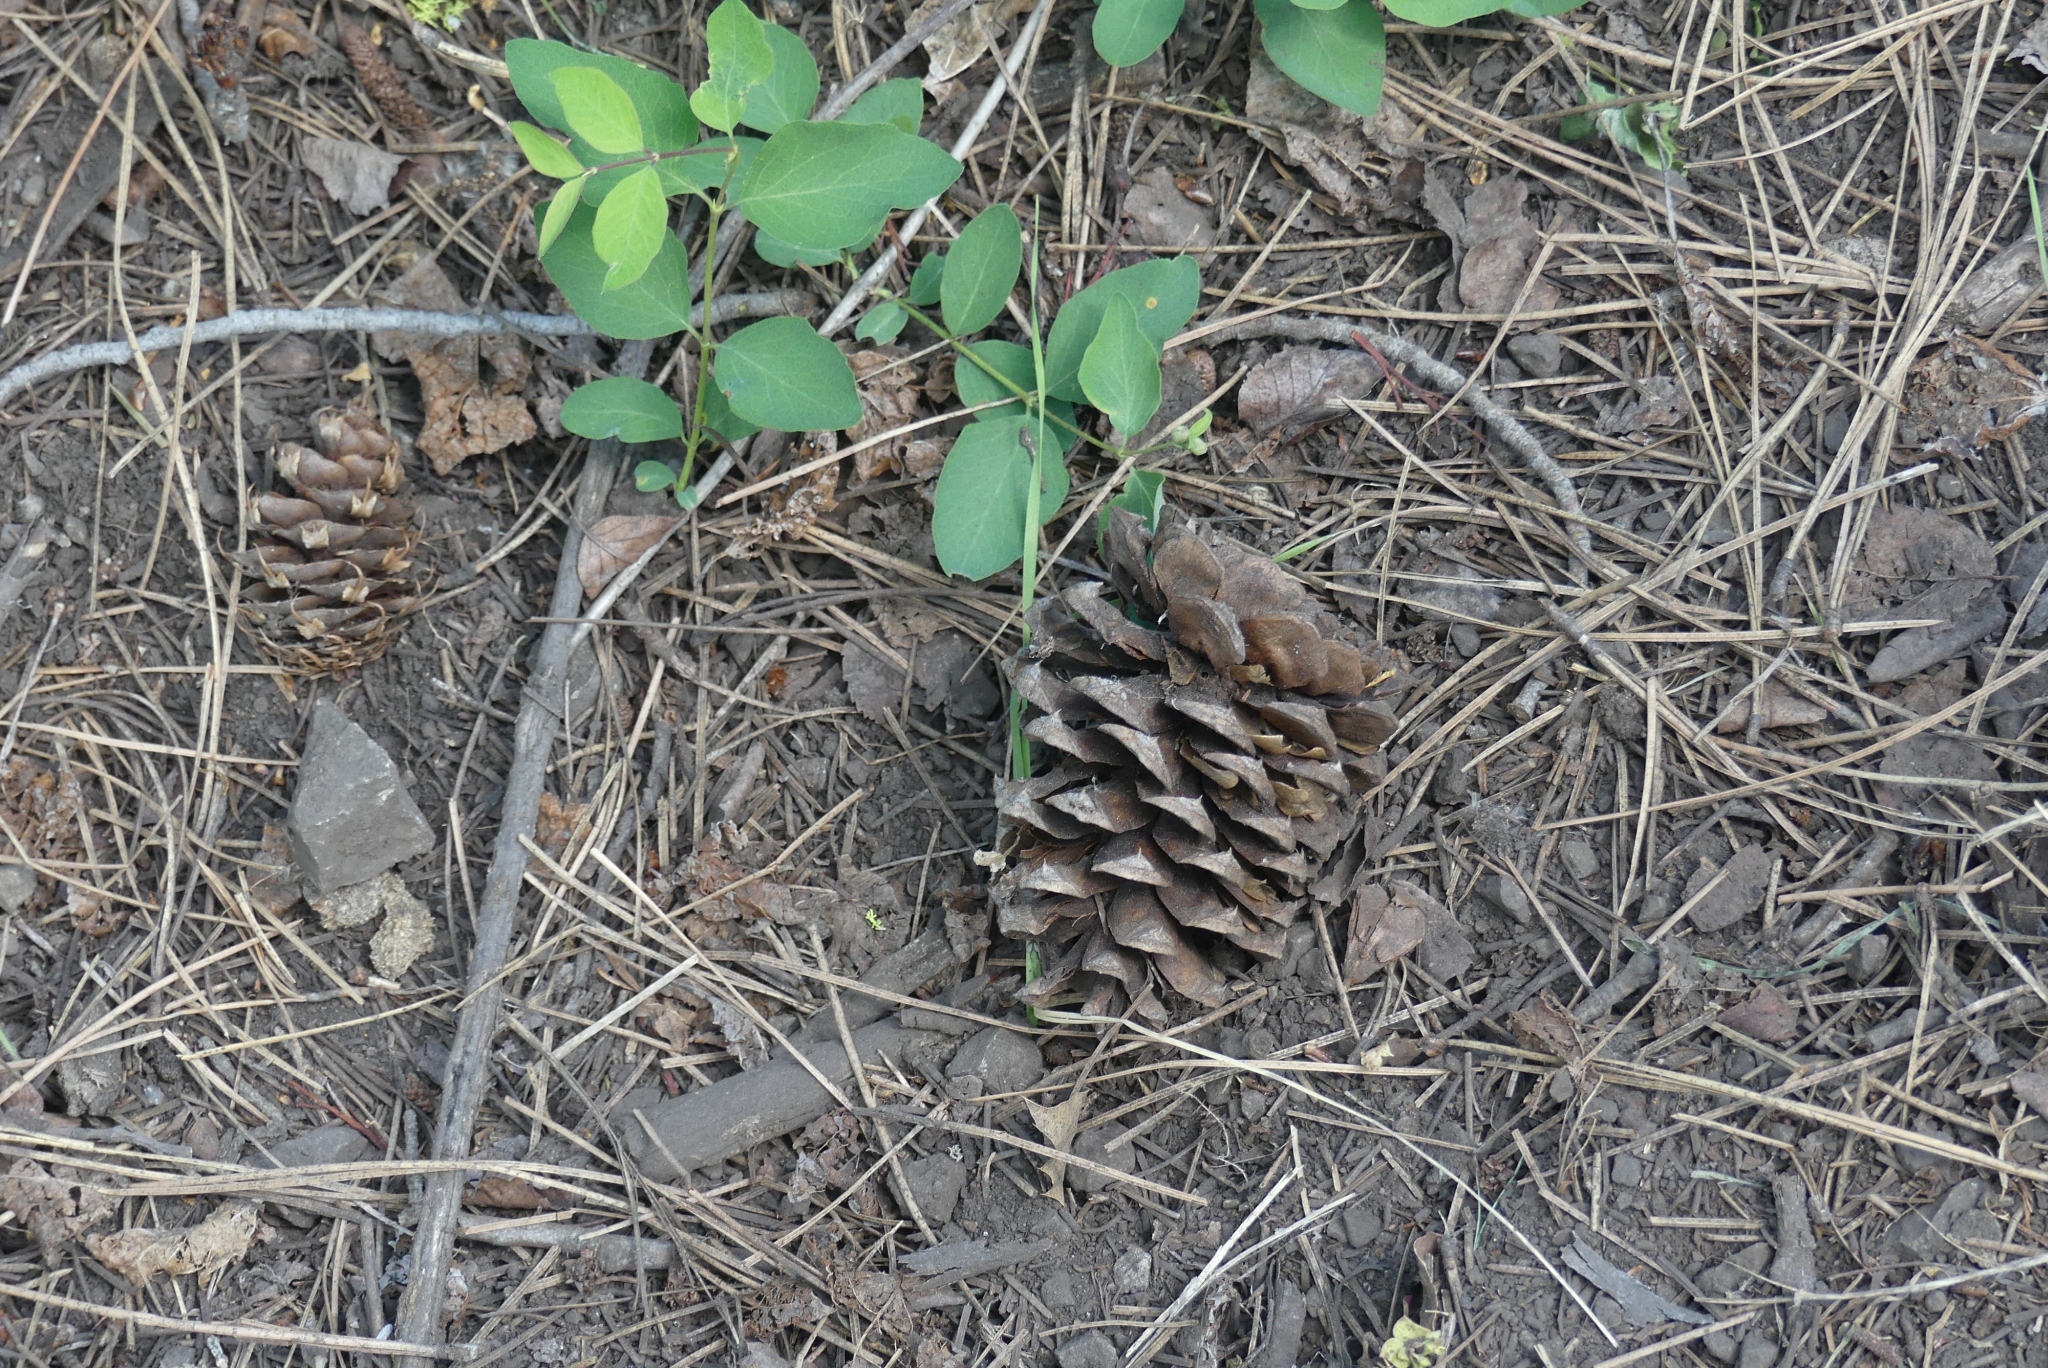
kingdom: Plantae
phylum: Tracheophyta
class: Pinopsida
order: Pinales
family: Pinaceae
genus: Pinus
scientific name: Pinus ponderosa
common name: Western yellow-pine
